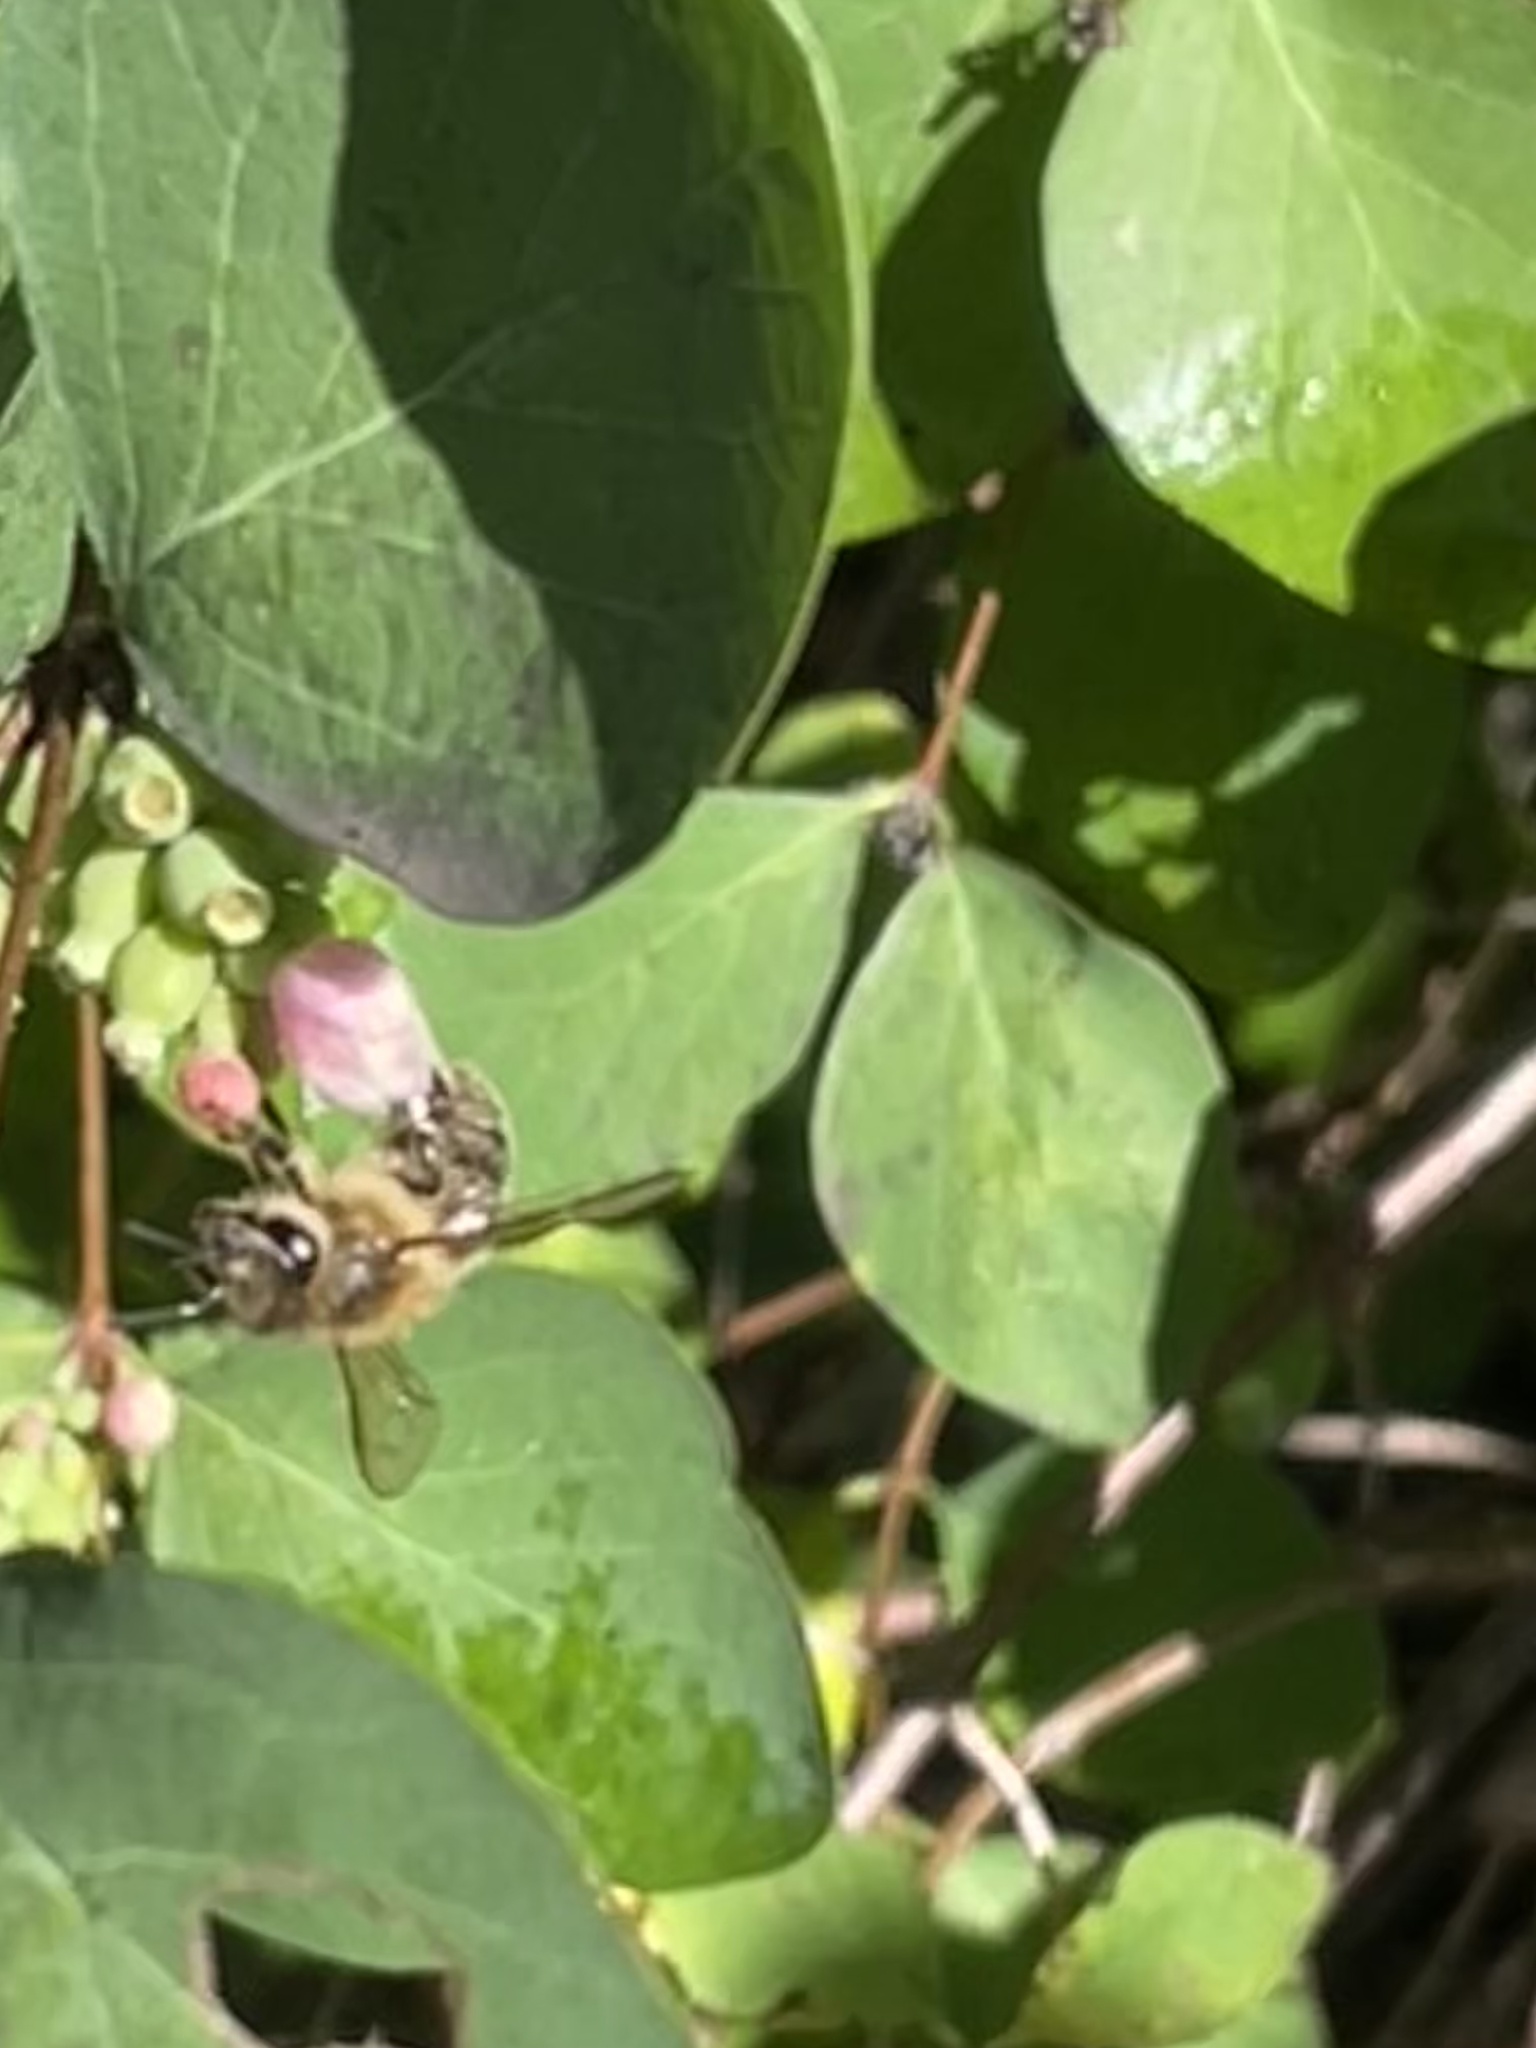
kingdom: Animalia
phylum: Arthropoda
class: Insecta
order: Hymenoptera
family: Apidae
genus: Apis
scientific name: Apis mellifera
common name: Honey bee
